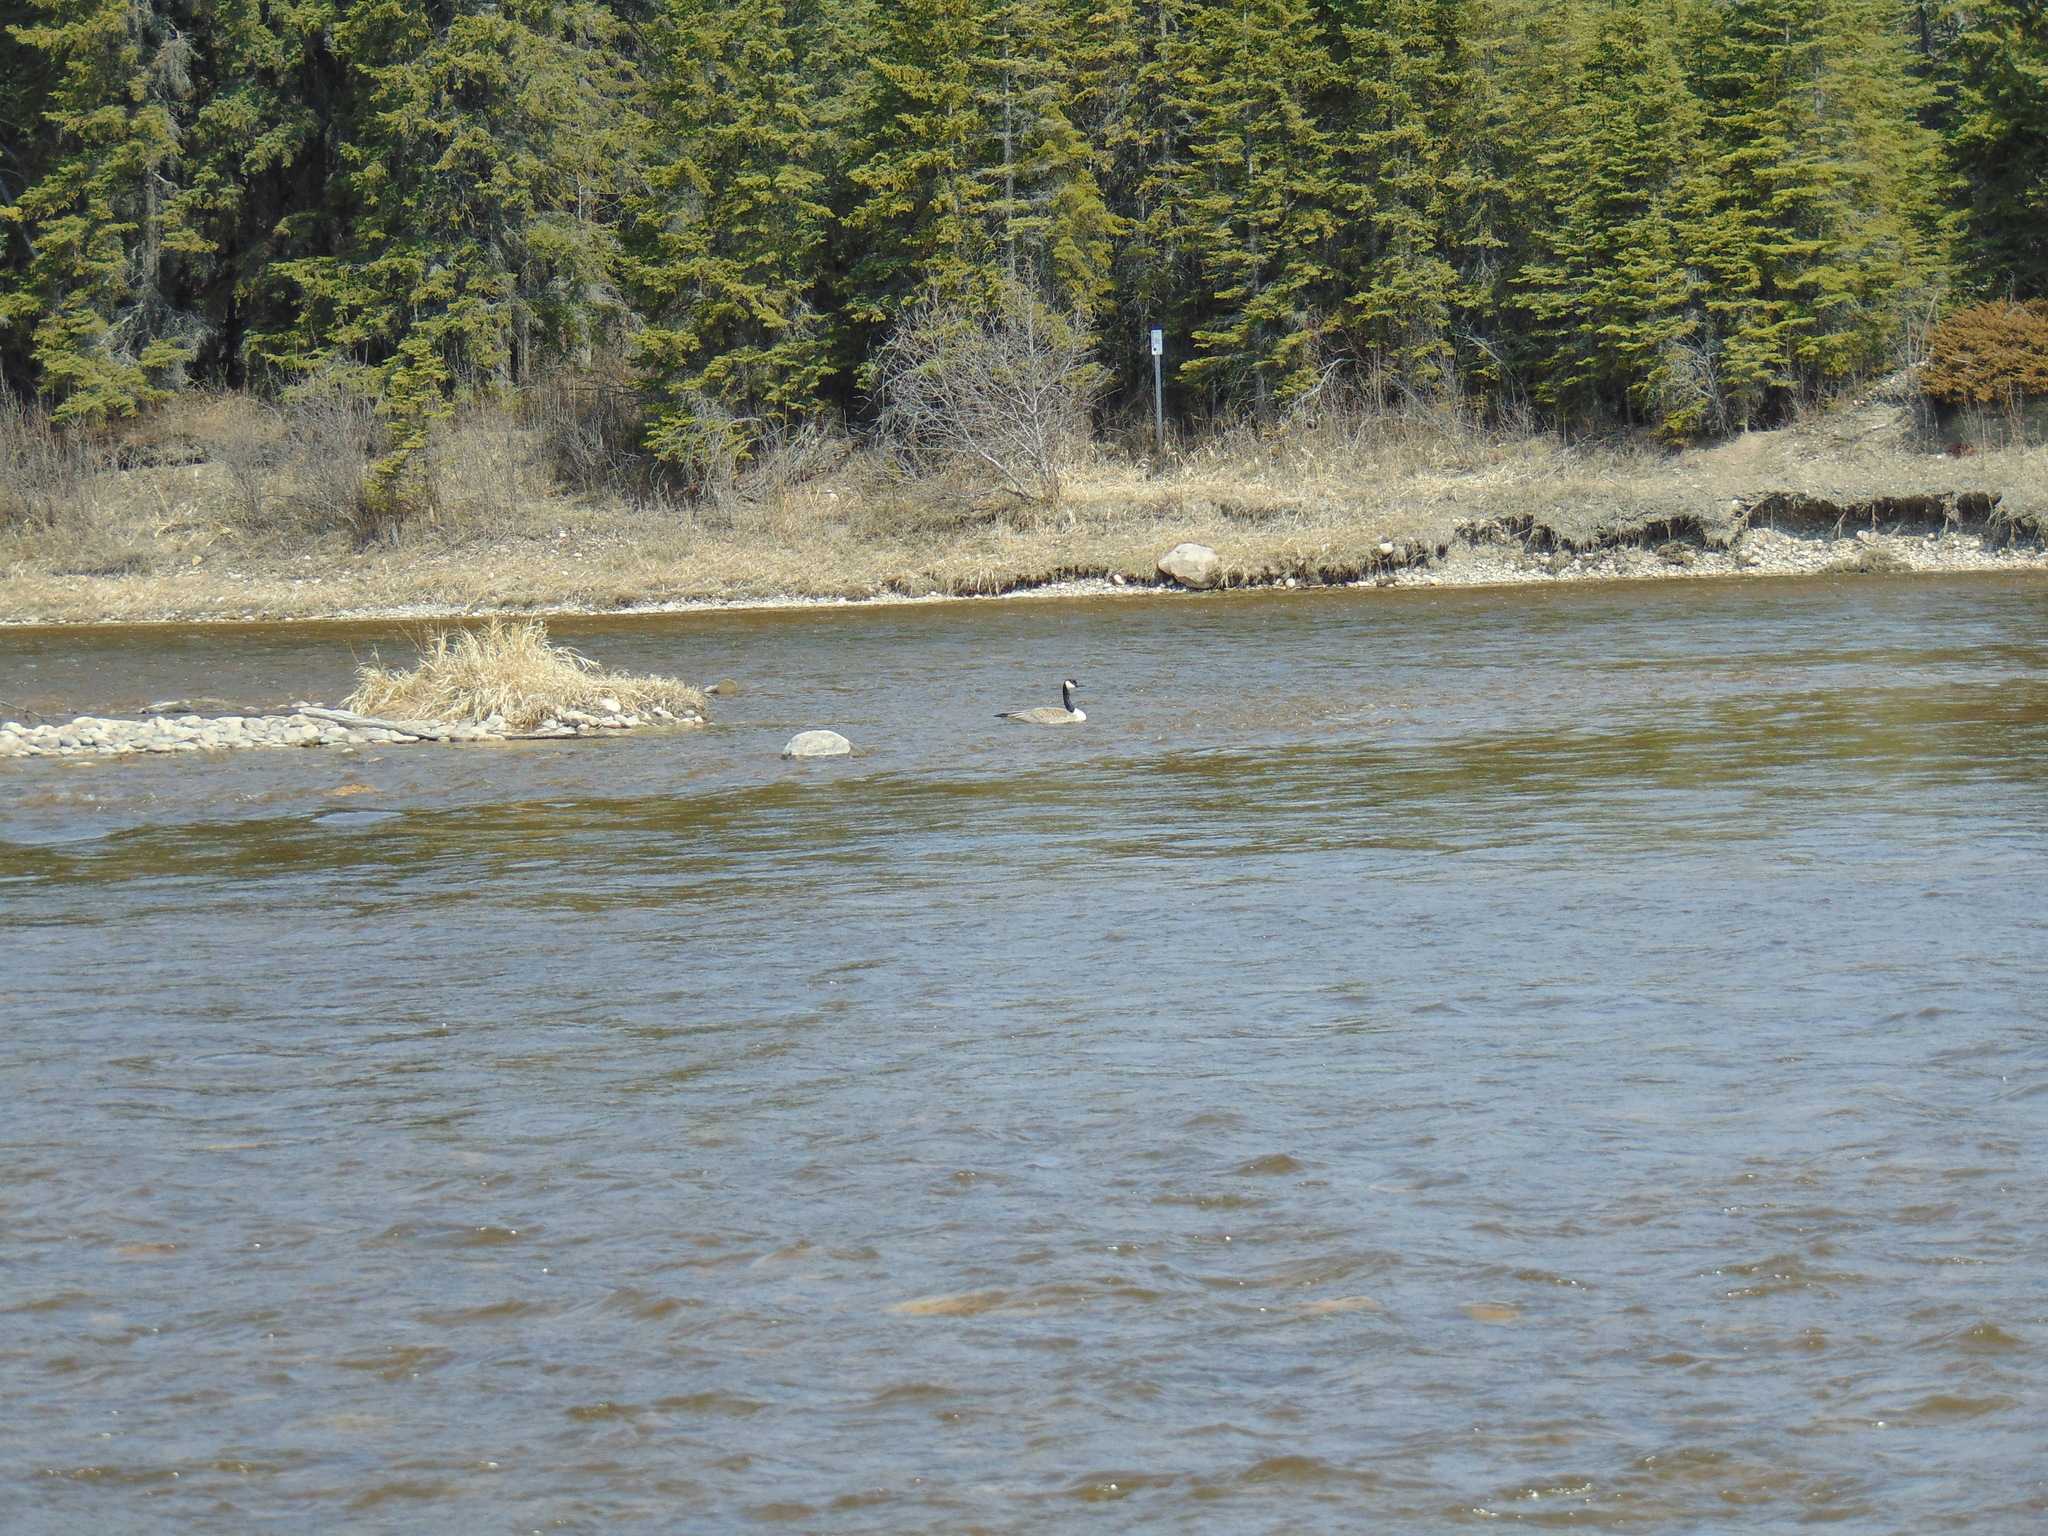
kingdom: Animalia
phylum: Chordata
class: Aves
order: Anseriformes
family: Anatidae
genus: Branta
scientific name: Branta canadensis
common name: Canada goose
